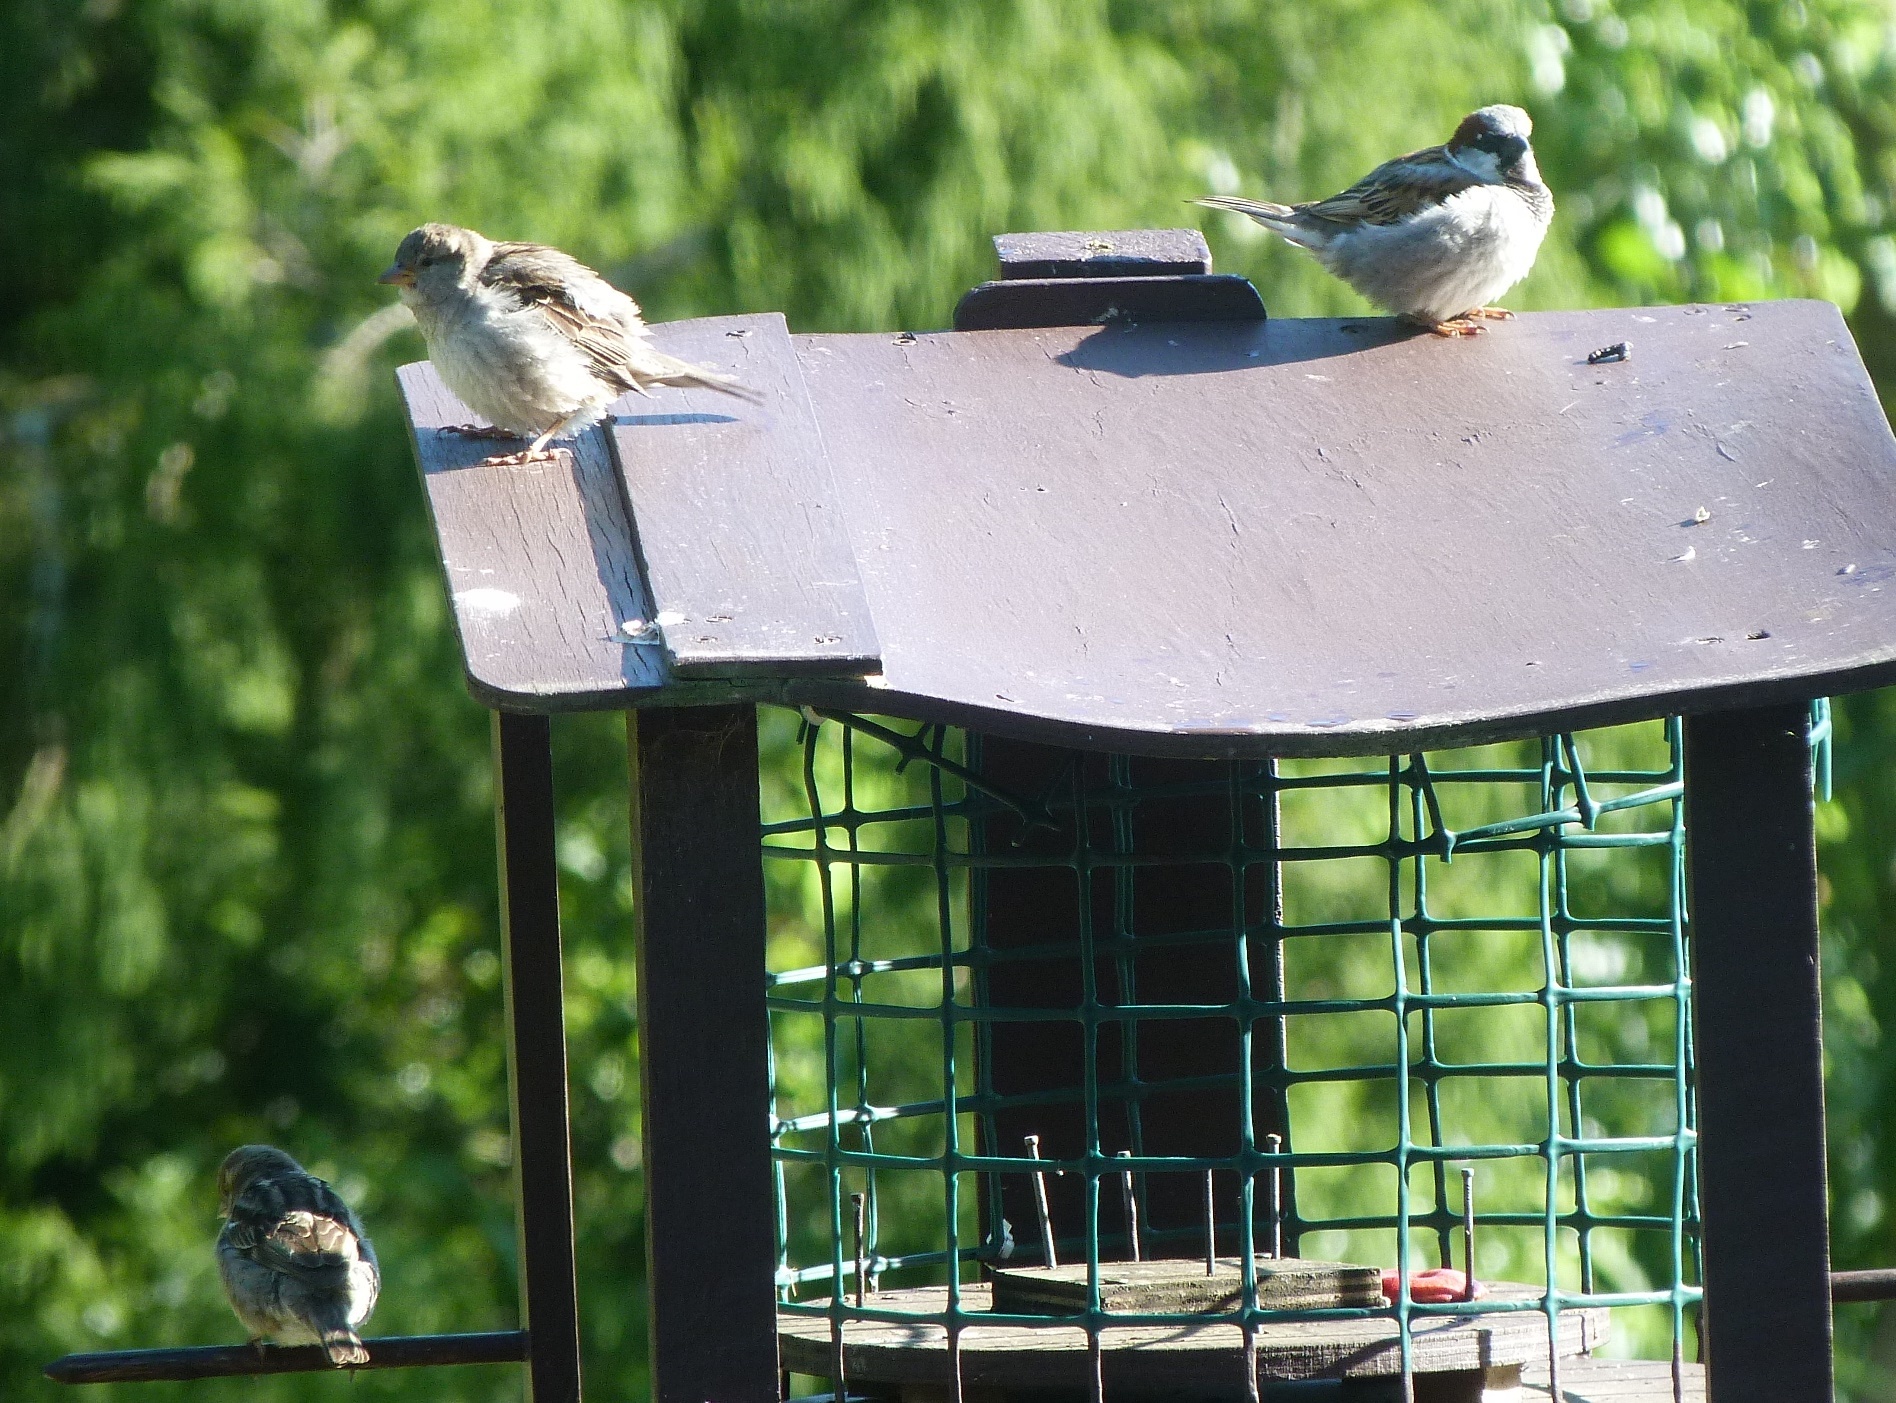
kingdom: Animalia
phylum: Chordata
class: Aves
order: Passeriformes
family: Passeridae
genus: Passer
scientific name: Passer domesticus
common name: House sparrow
